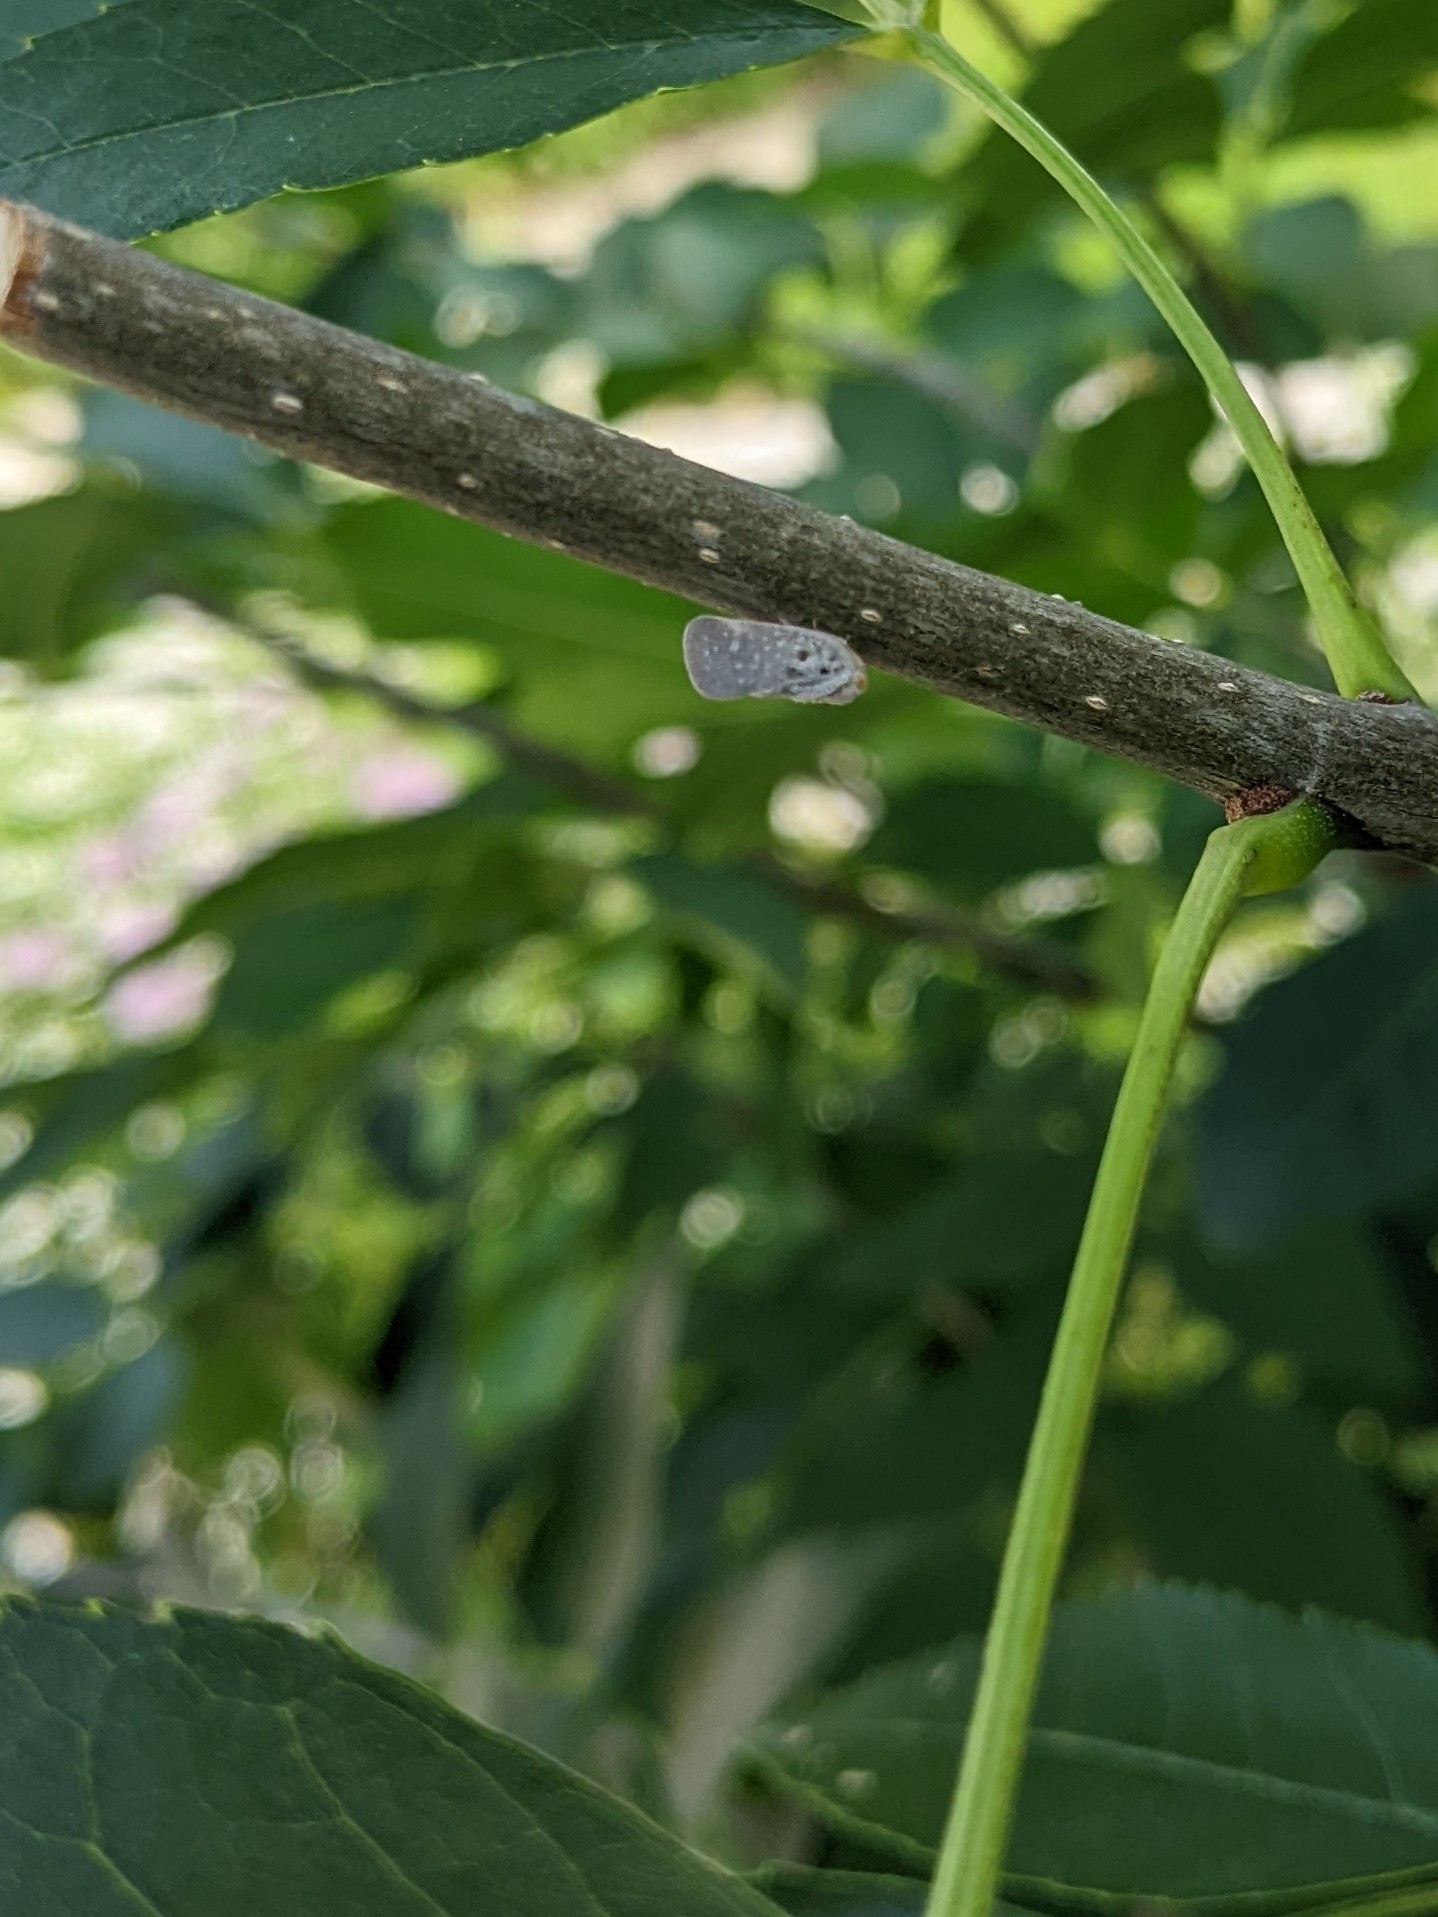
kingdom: Animalia
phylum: Arthropoda
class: Insecta
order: Hemiptera
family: Flatidae
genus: Metcalfa
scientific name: Metcalfa pruinosa
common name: Citrus flatid planthopper
